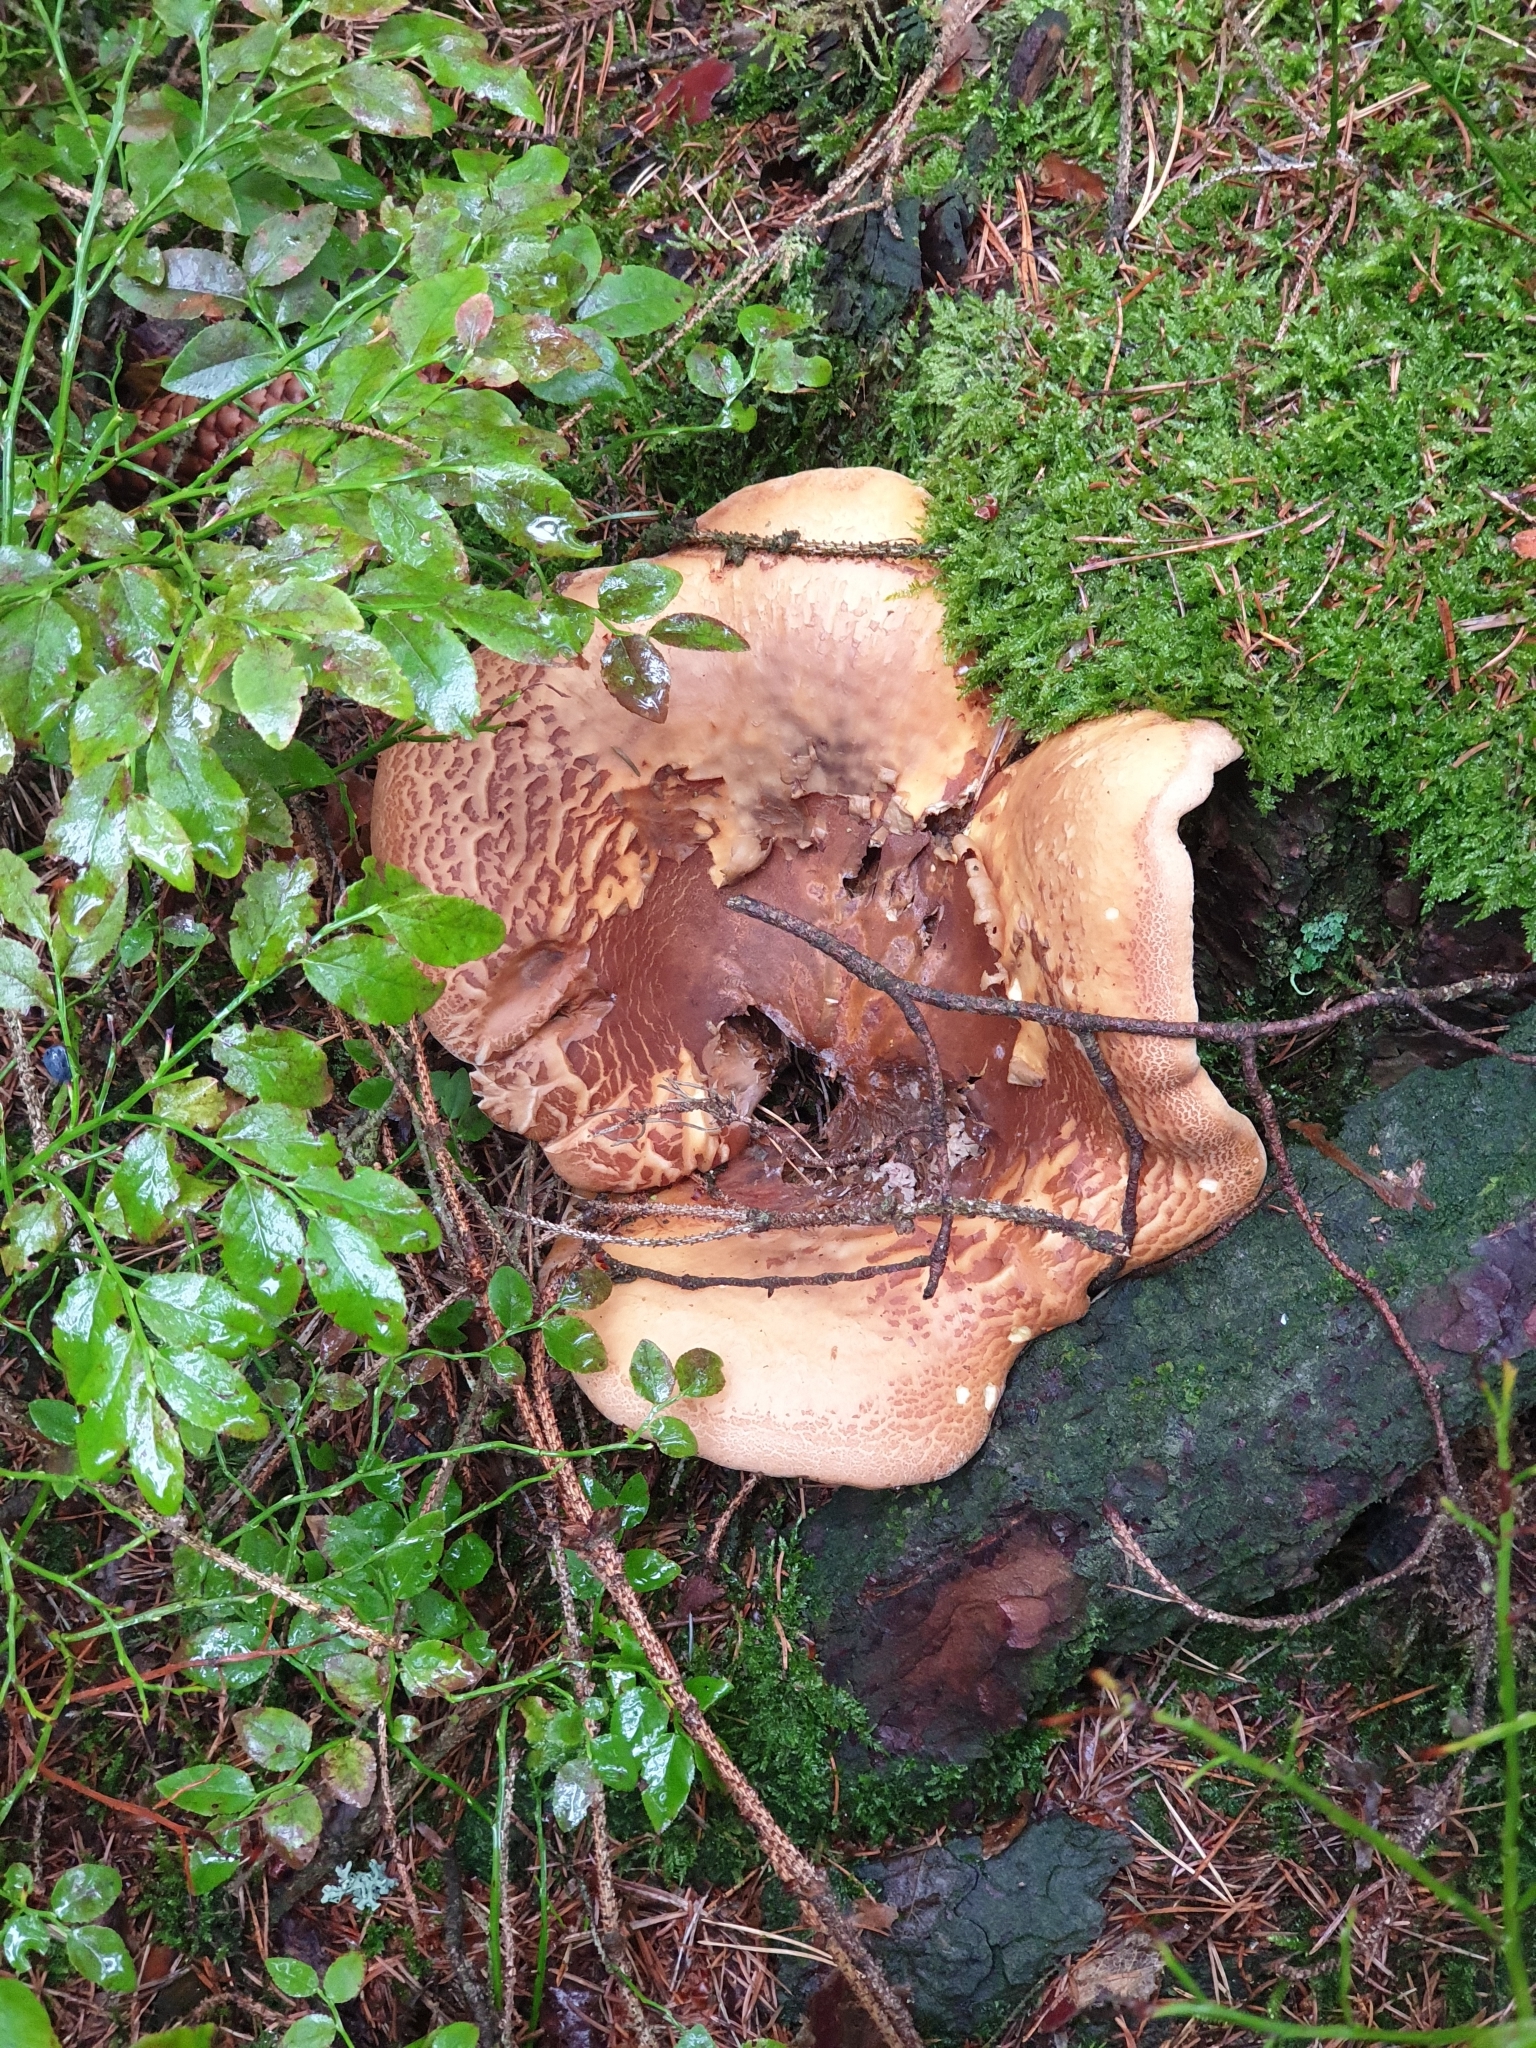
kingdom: Fungi
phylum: Basidiomycota
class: Agaricomycetes
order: Boletales
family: Tapinellaceae
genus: Tapinella
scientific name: Tapinella atrotomentosa
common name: Velvet rollrim
